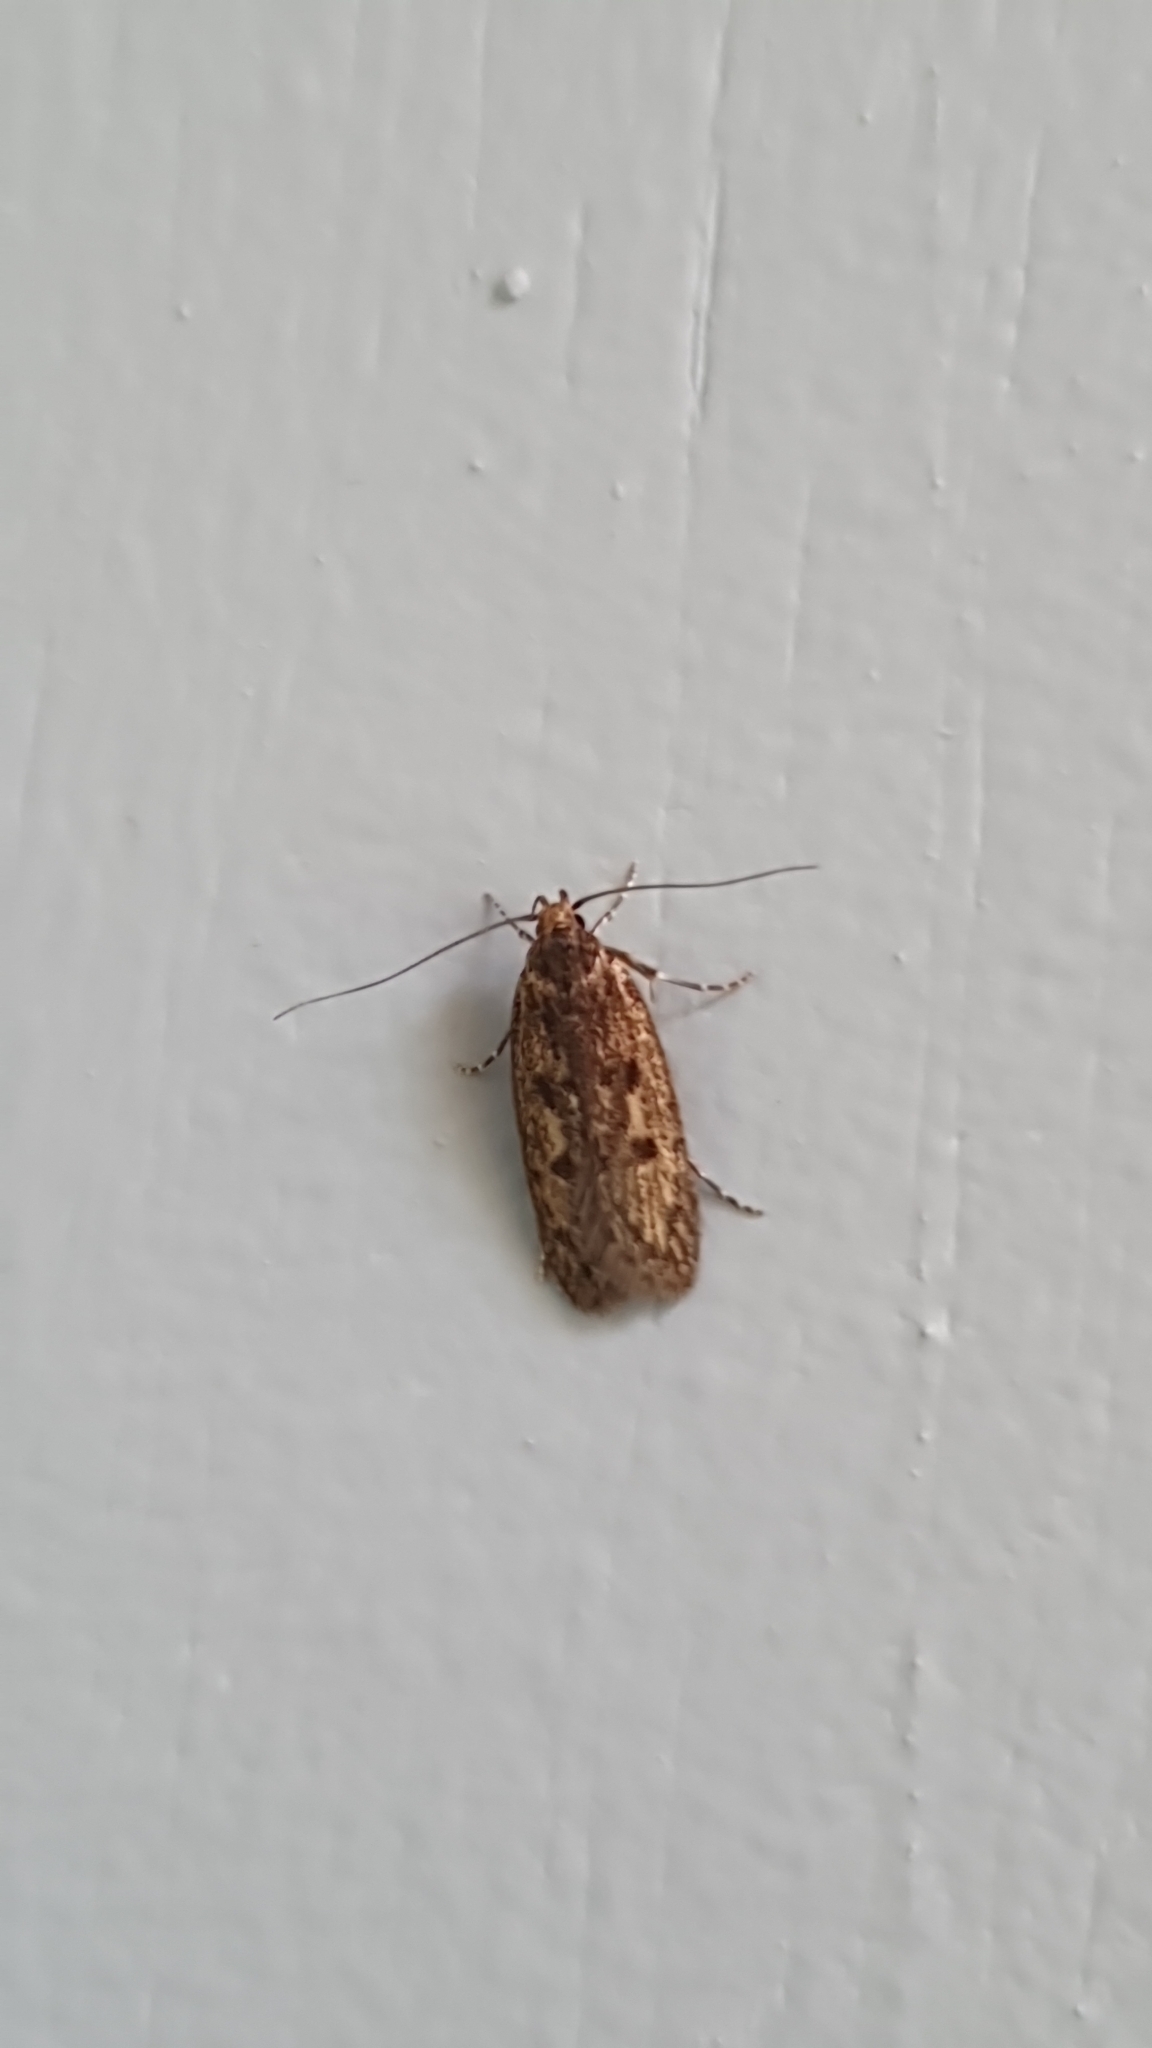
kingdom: Animalia
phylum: Arthropoda
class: Insecta
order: Lepidoptera
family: Oecophoridae
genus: Hofmannophila
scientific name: Hofmannophila pseudospretella
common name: Brown house moth
